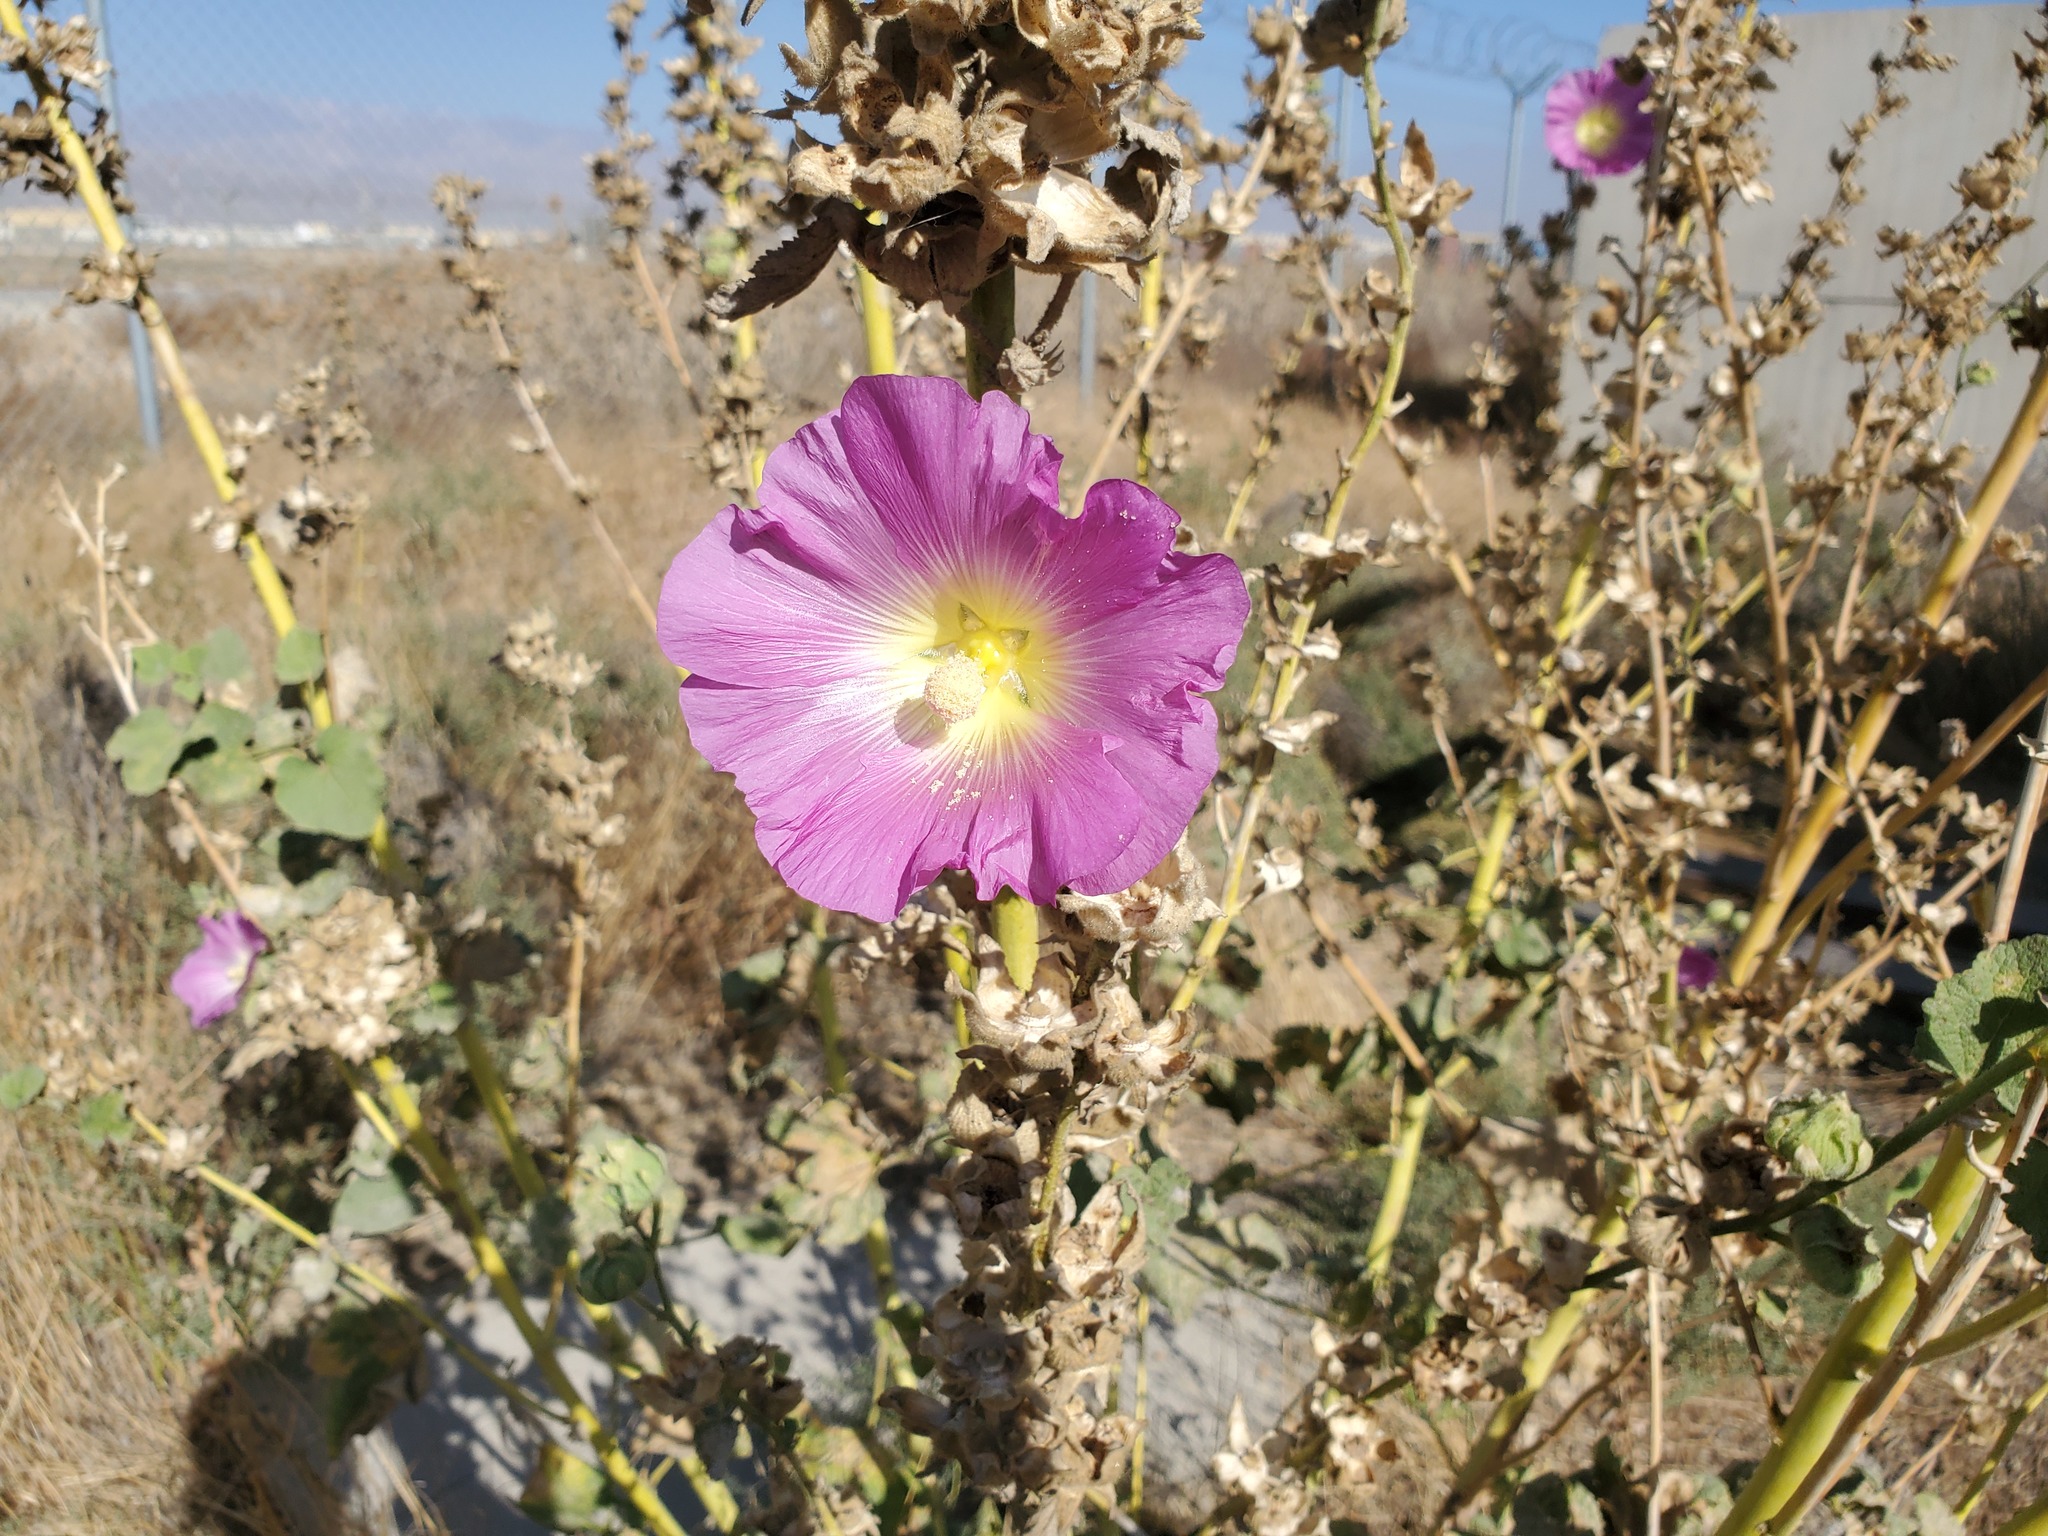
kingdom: Plantae
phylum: Tracheophyta
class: Magnoliopsida
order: Malvales
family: Malvaceae
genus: Alcea
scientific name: Alcea rosea
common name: Hollyhock
